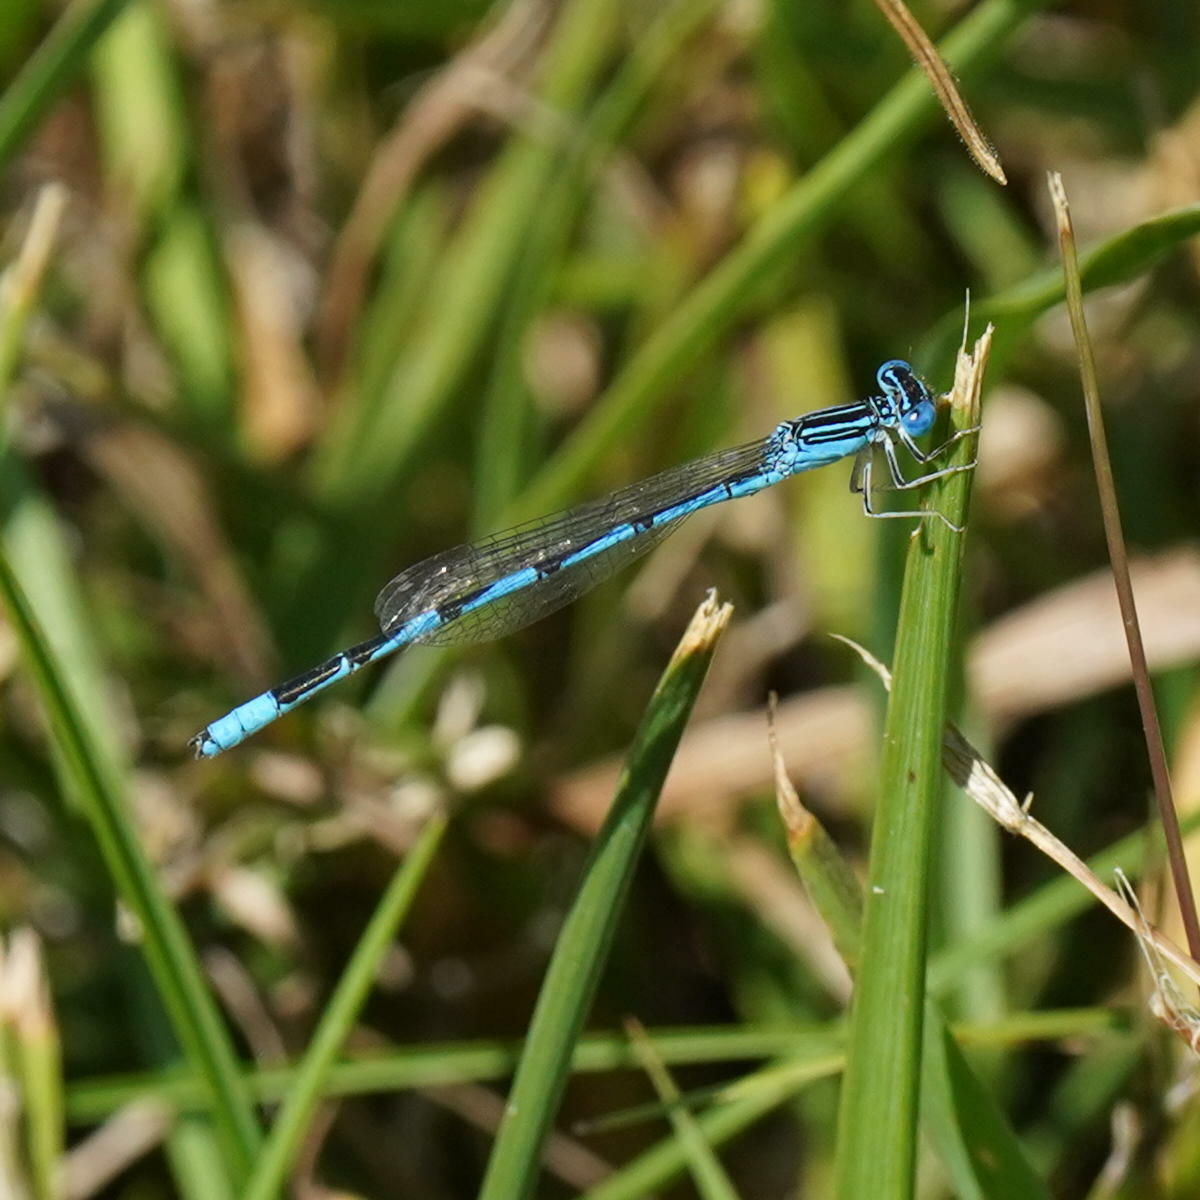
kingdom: Animalia
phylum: Arthropoda
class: Insecta
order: Odonata
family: Coenagrionidae
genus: Enallagma
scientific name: Enallagma basidens
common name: Double-striped bluet
